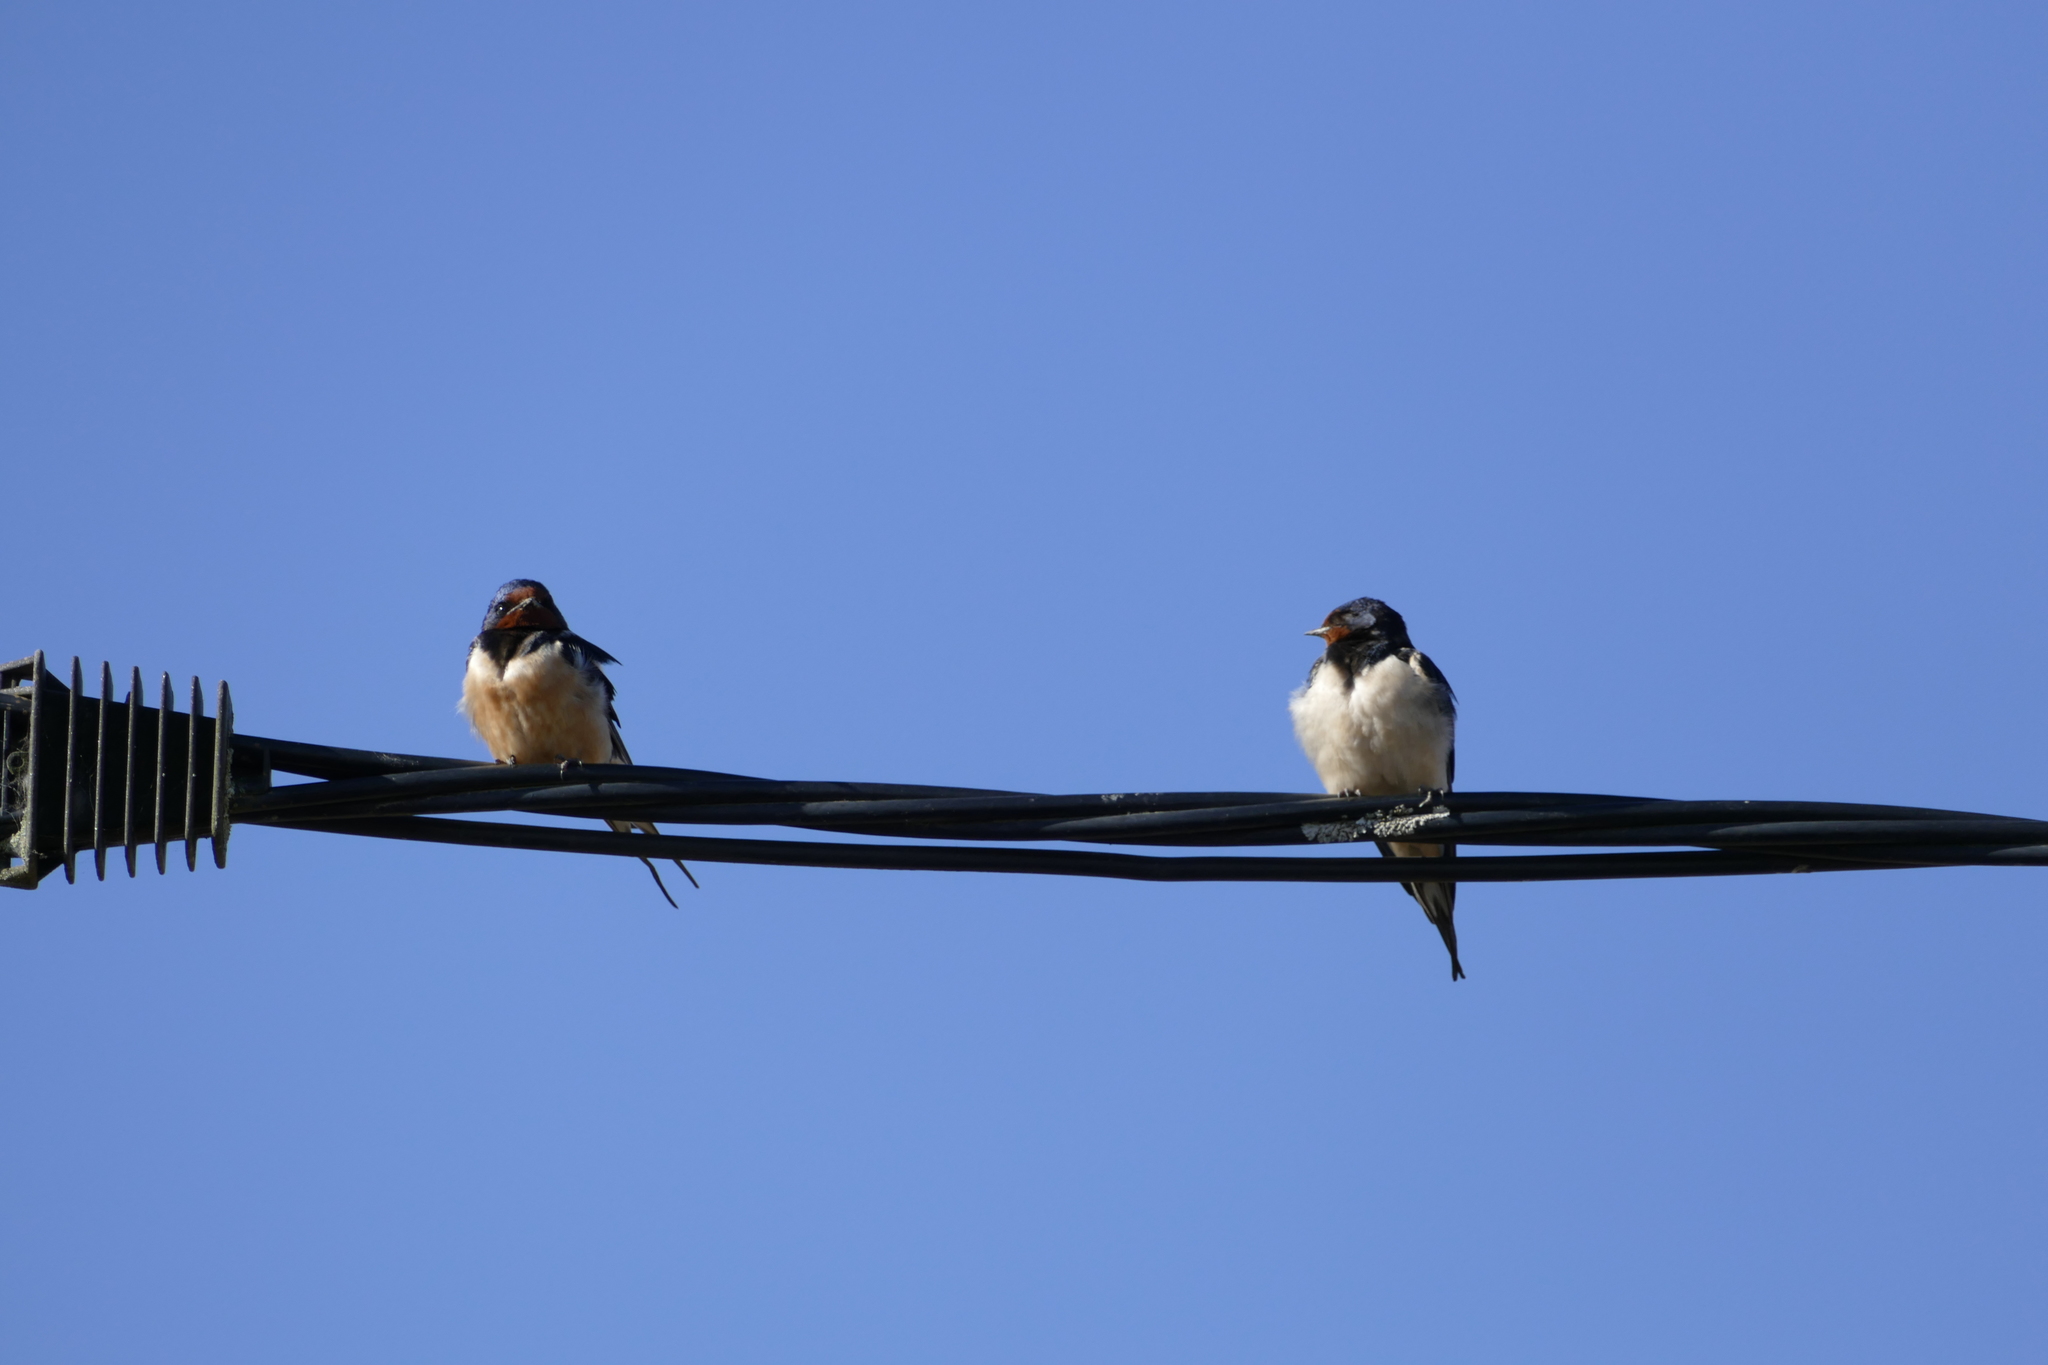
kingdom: Animalia
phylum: Chordata
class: Aves
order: Passeriformes
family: Hirundinidae
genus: Hirundo
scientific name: Hirundo rustica
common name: Barn swallow
